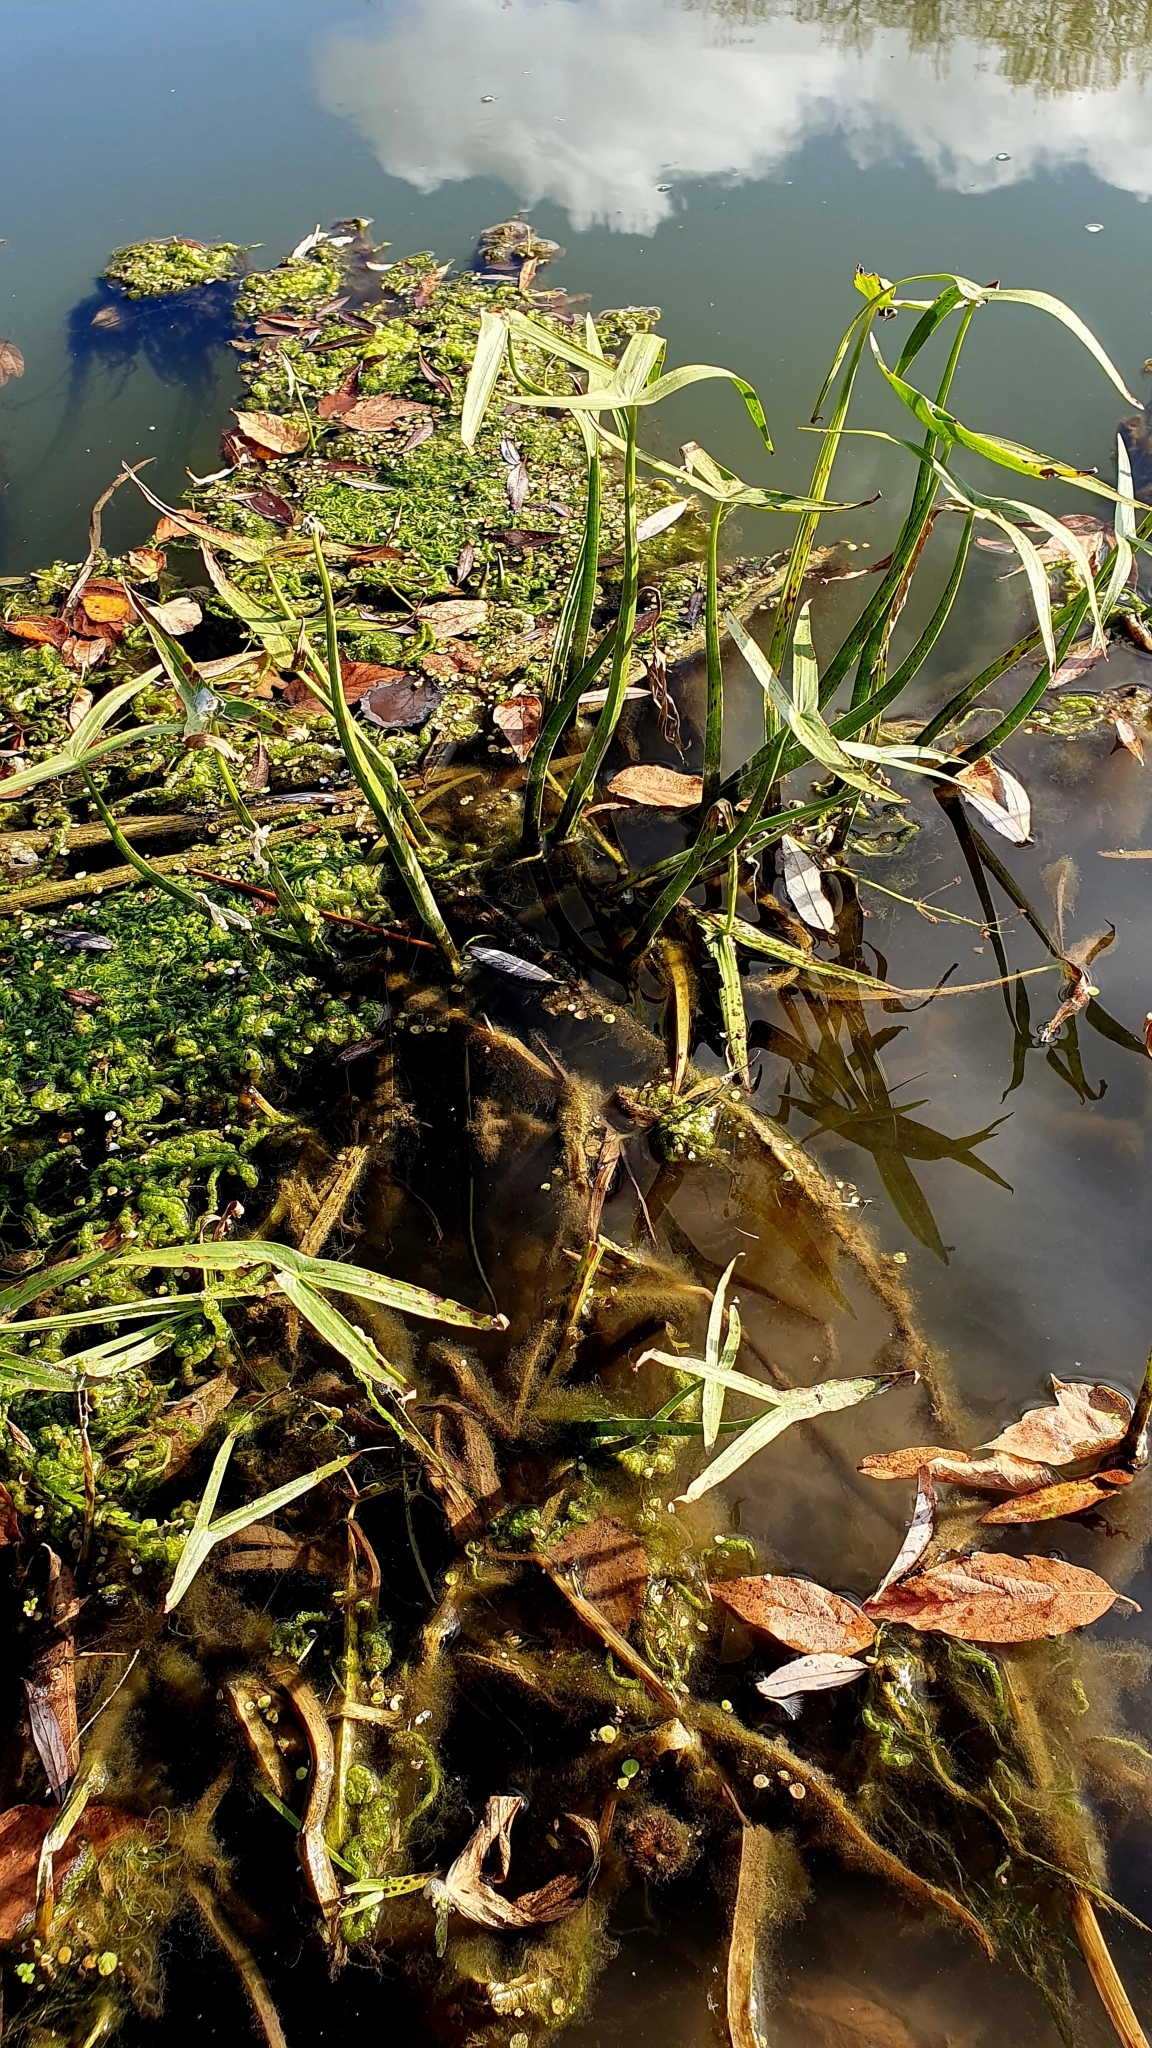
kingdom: Plantae
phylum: Tracheophyta
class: Liliopsida
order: Alismatales
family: Alismataceae
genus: Sagittaria
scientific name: Sagittaria sagittifolia
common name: Arrowhead
